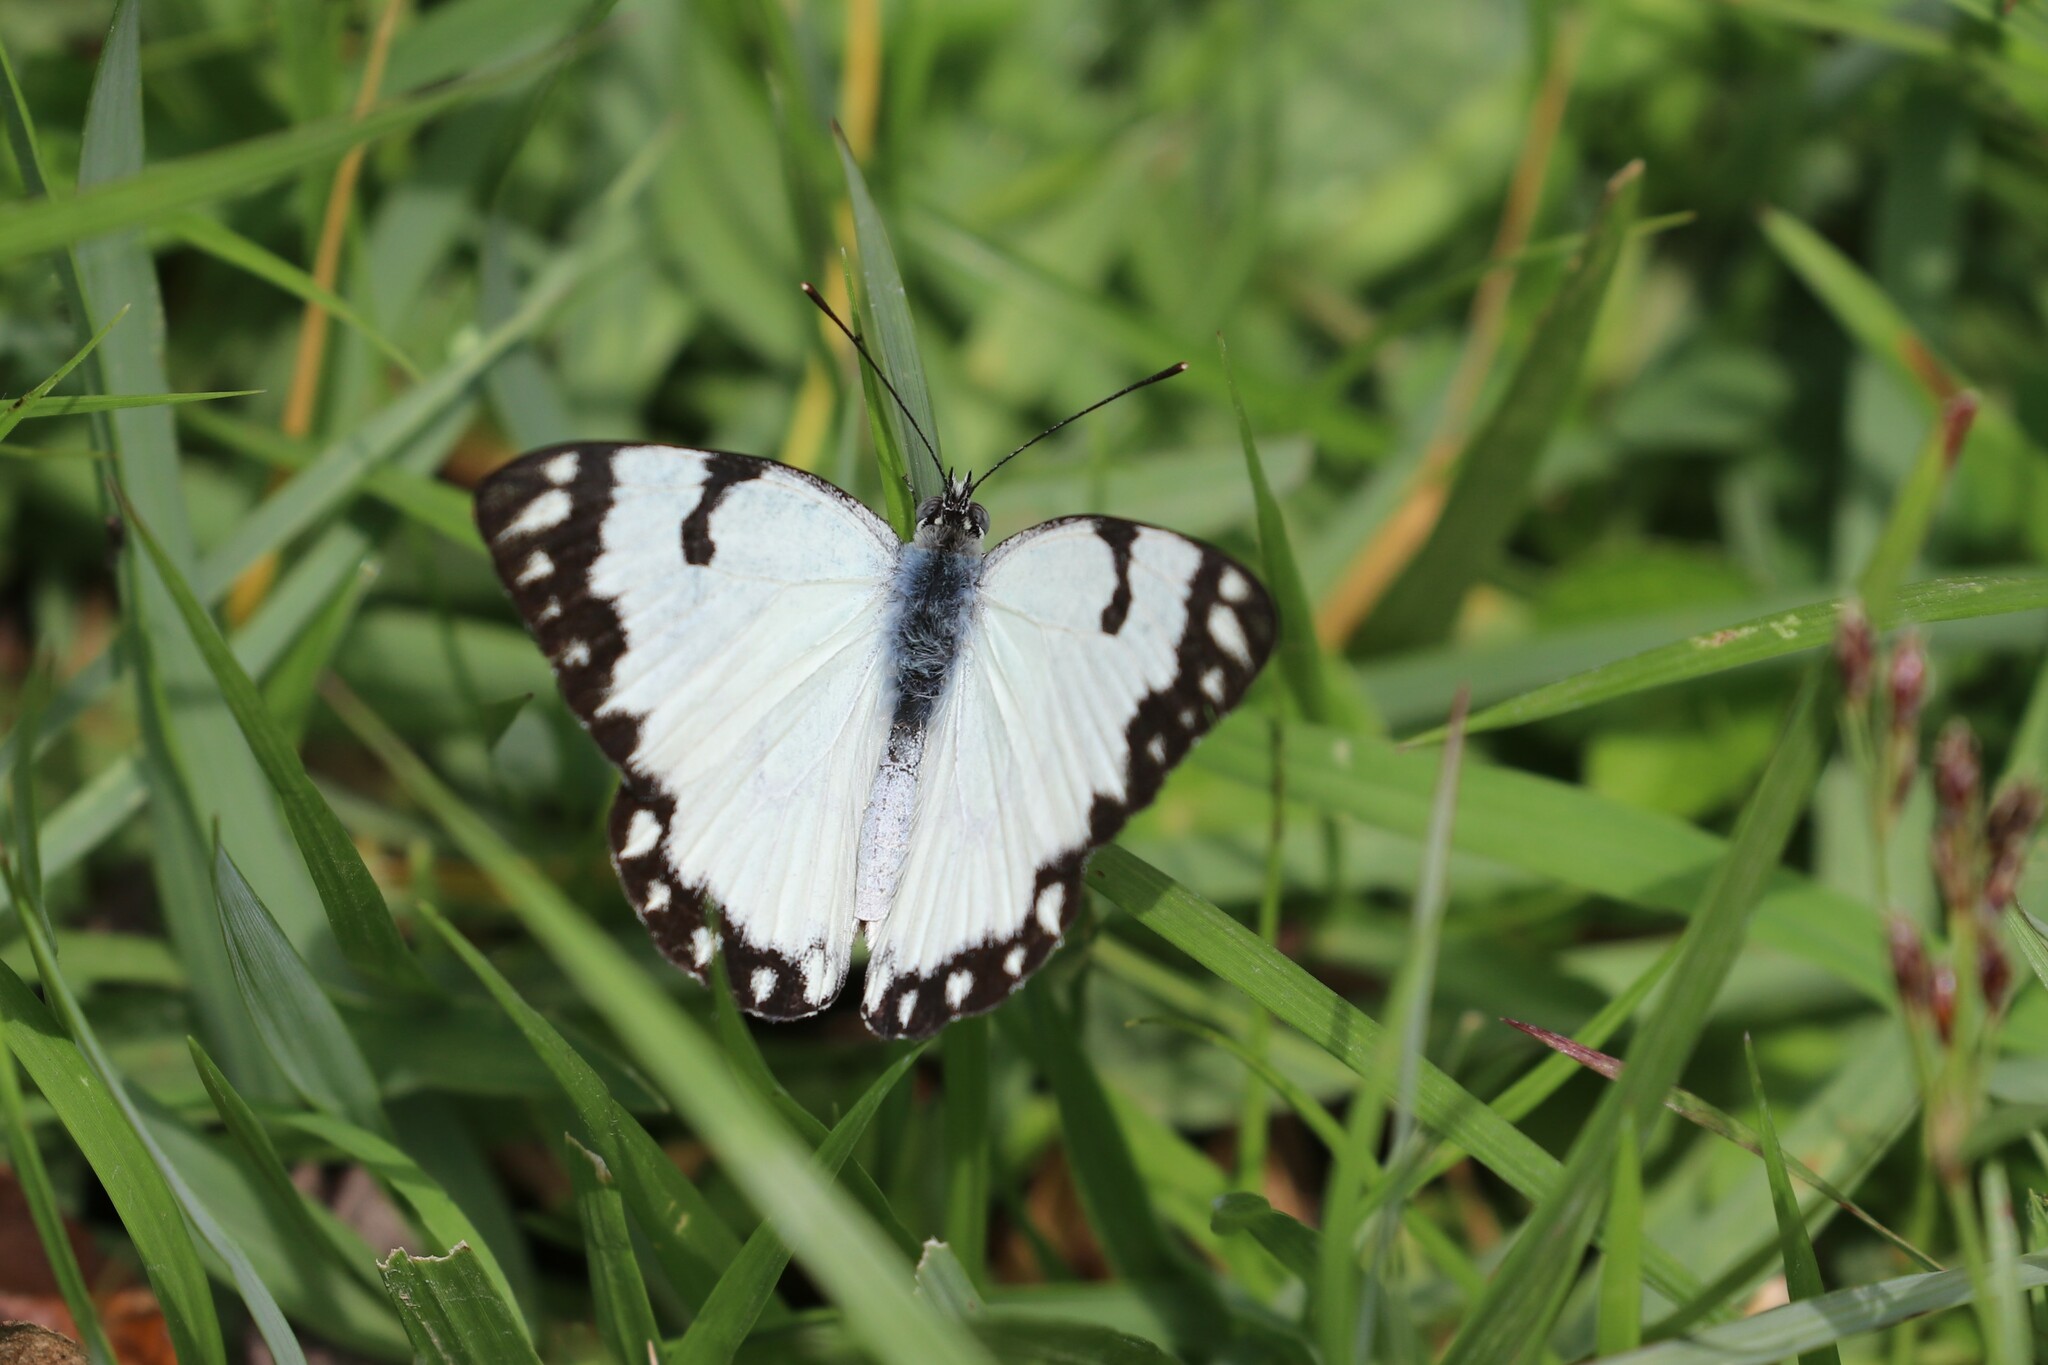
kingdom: Animalia
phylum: Arthropoda
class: Insecta
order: Lepidoptera
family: Pieridae
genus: Belenois
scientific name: Belenois creona
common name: African caper white
